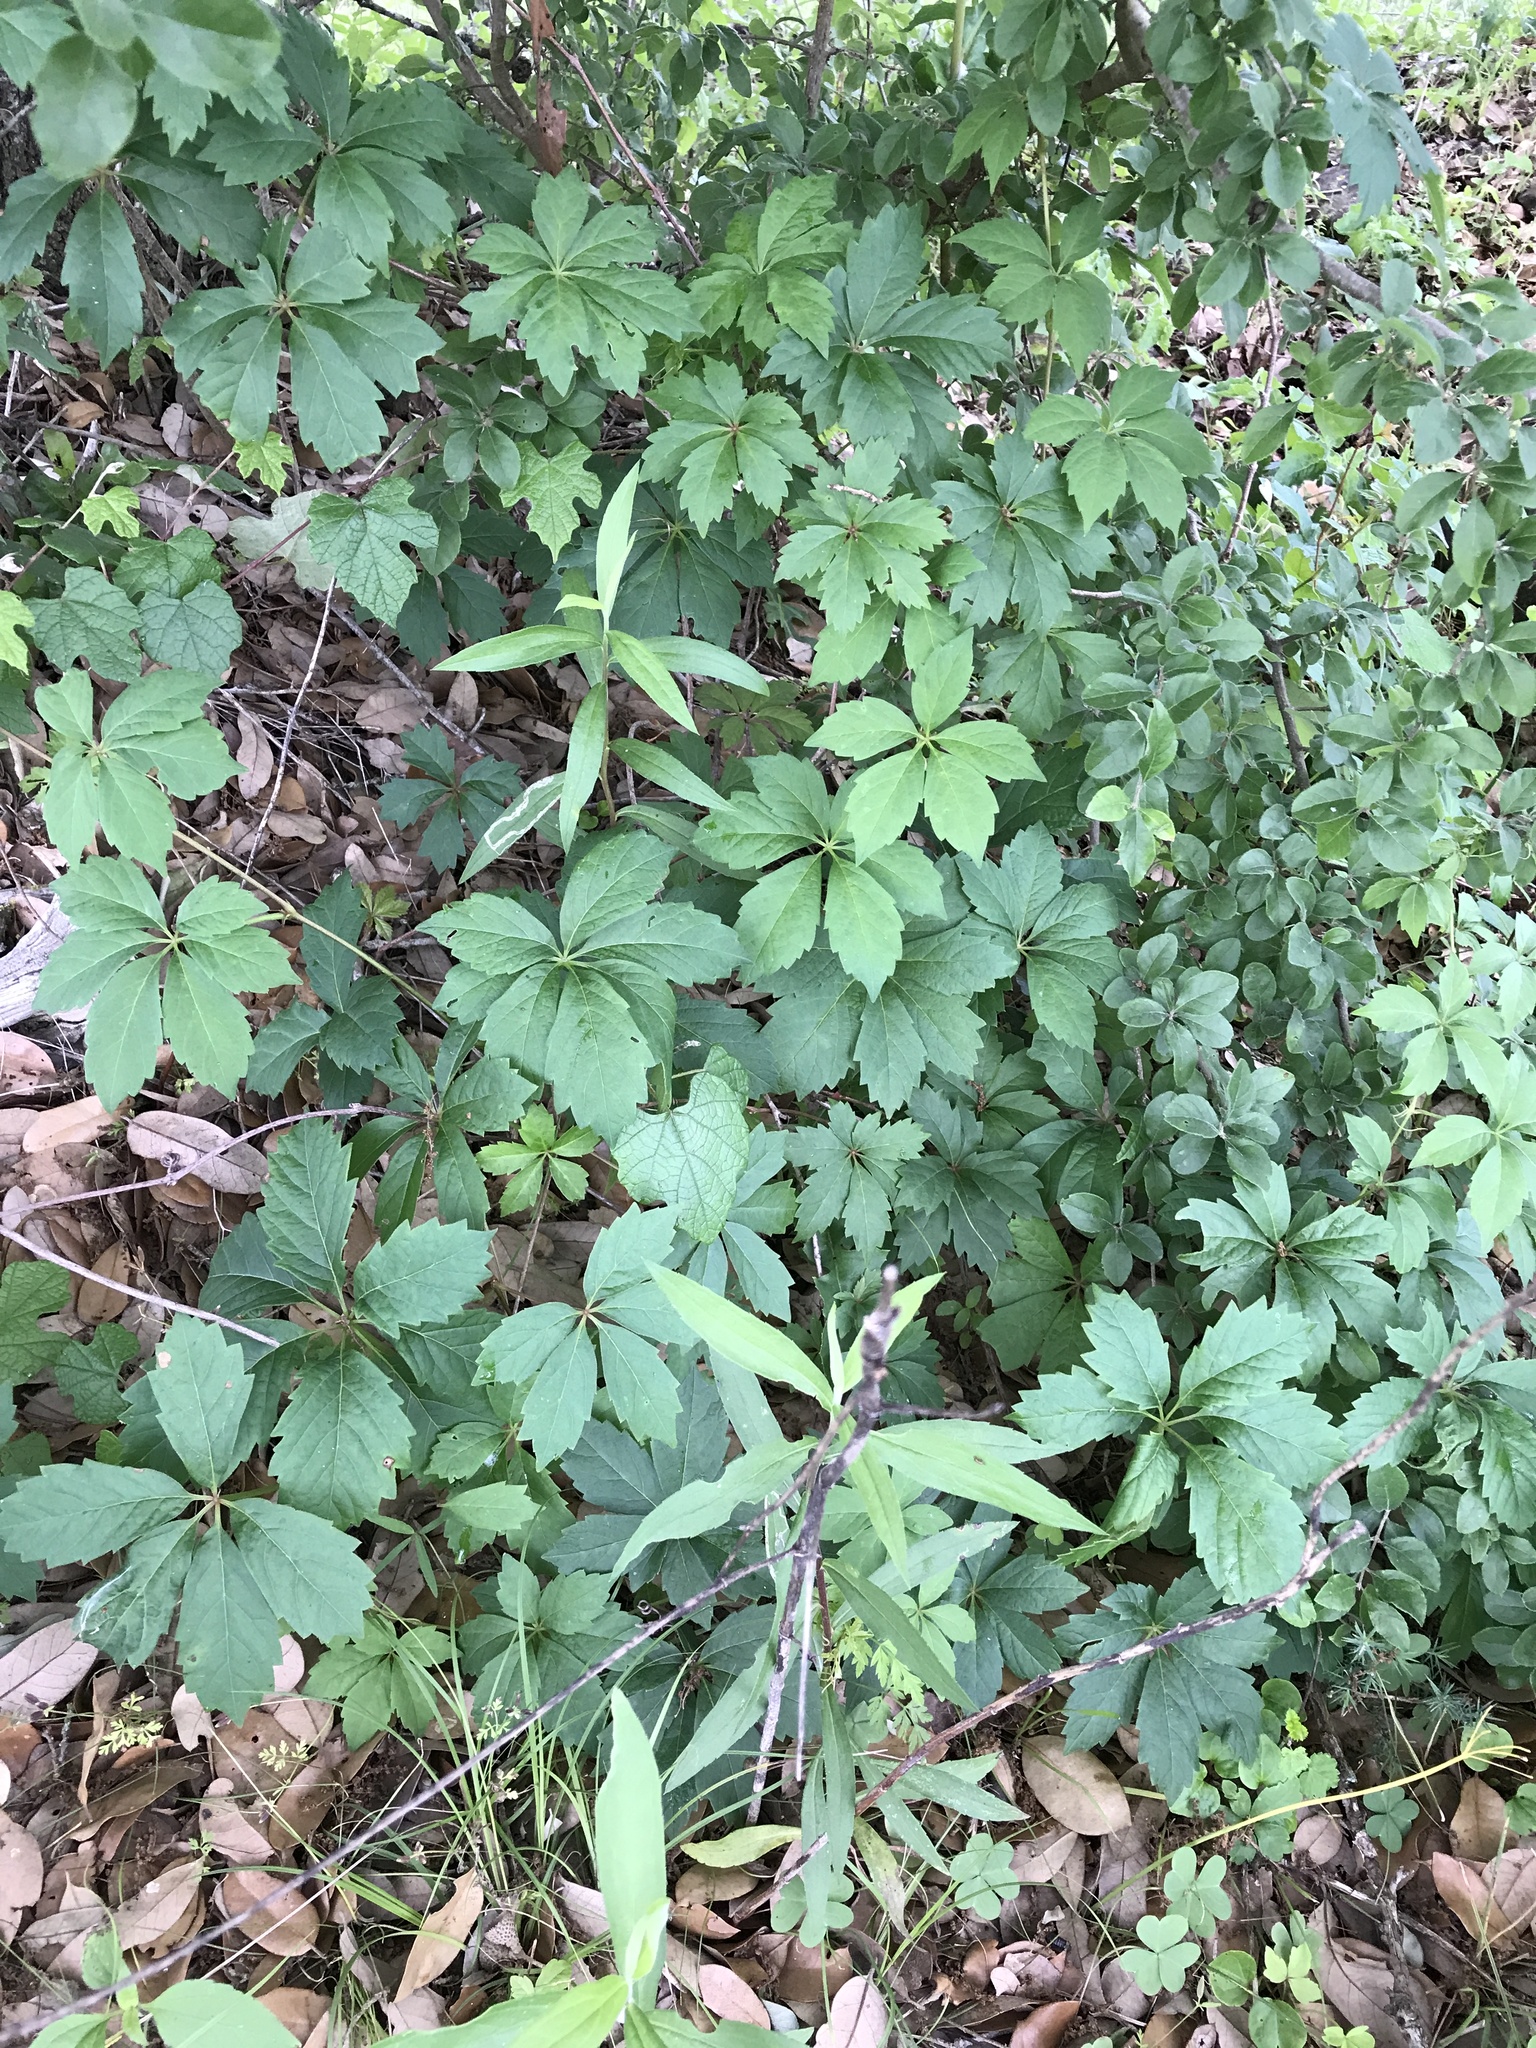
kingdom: Plantae
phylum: Tracheophyta
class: Magnoliopsida
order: Vitales
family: Vitaceae
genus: Parthenocissus
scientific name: Parthenocissus quinquefolia
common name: Virginia-creeper
